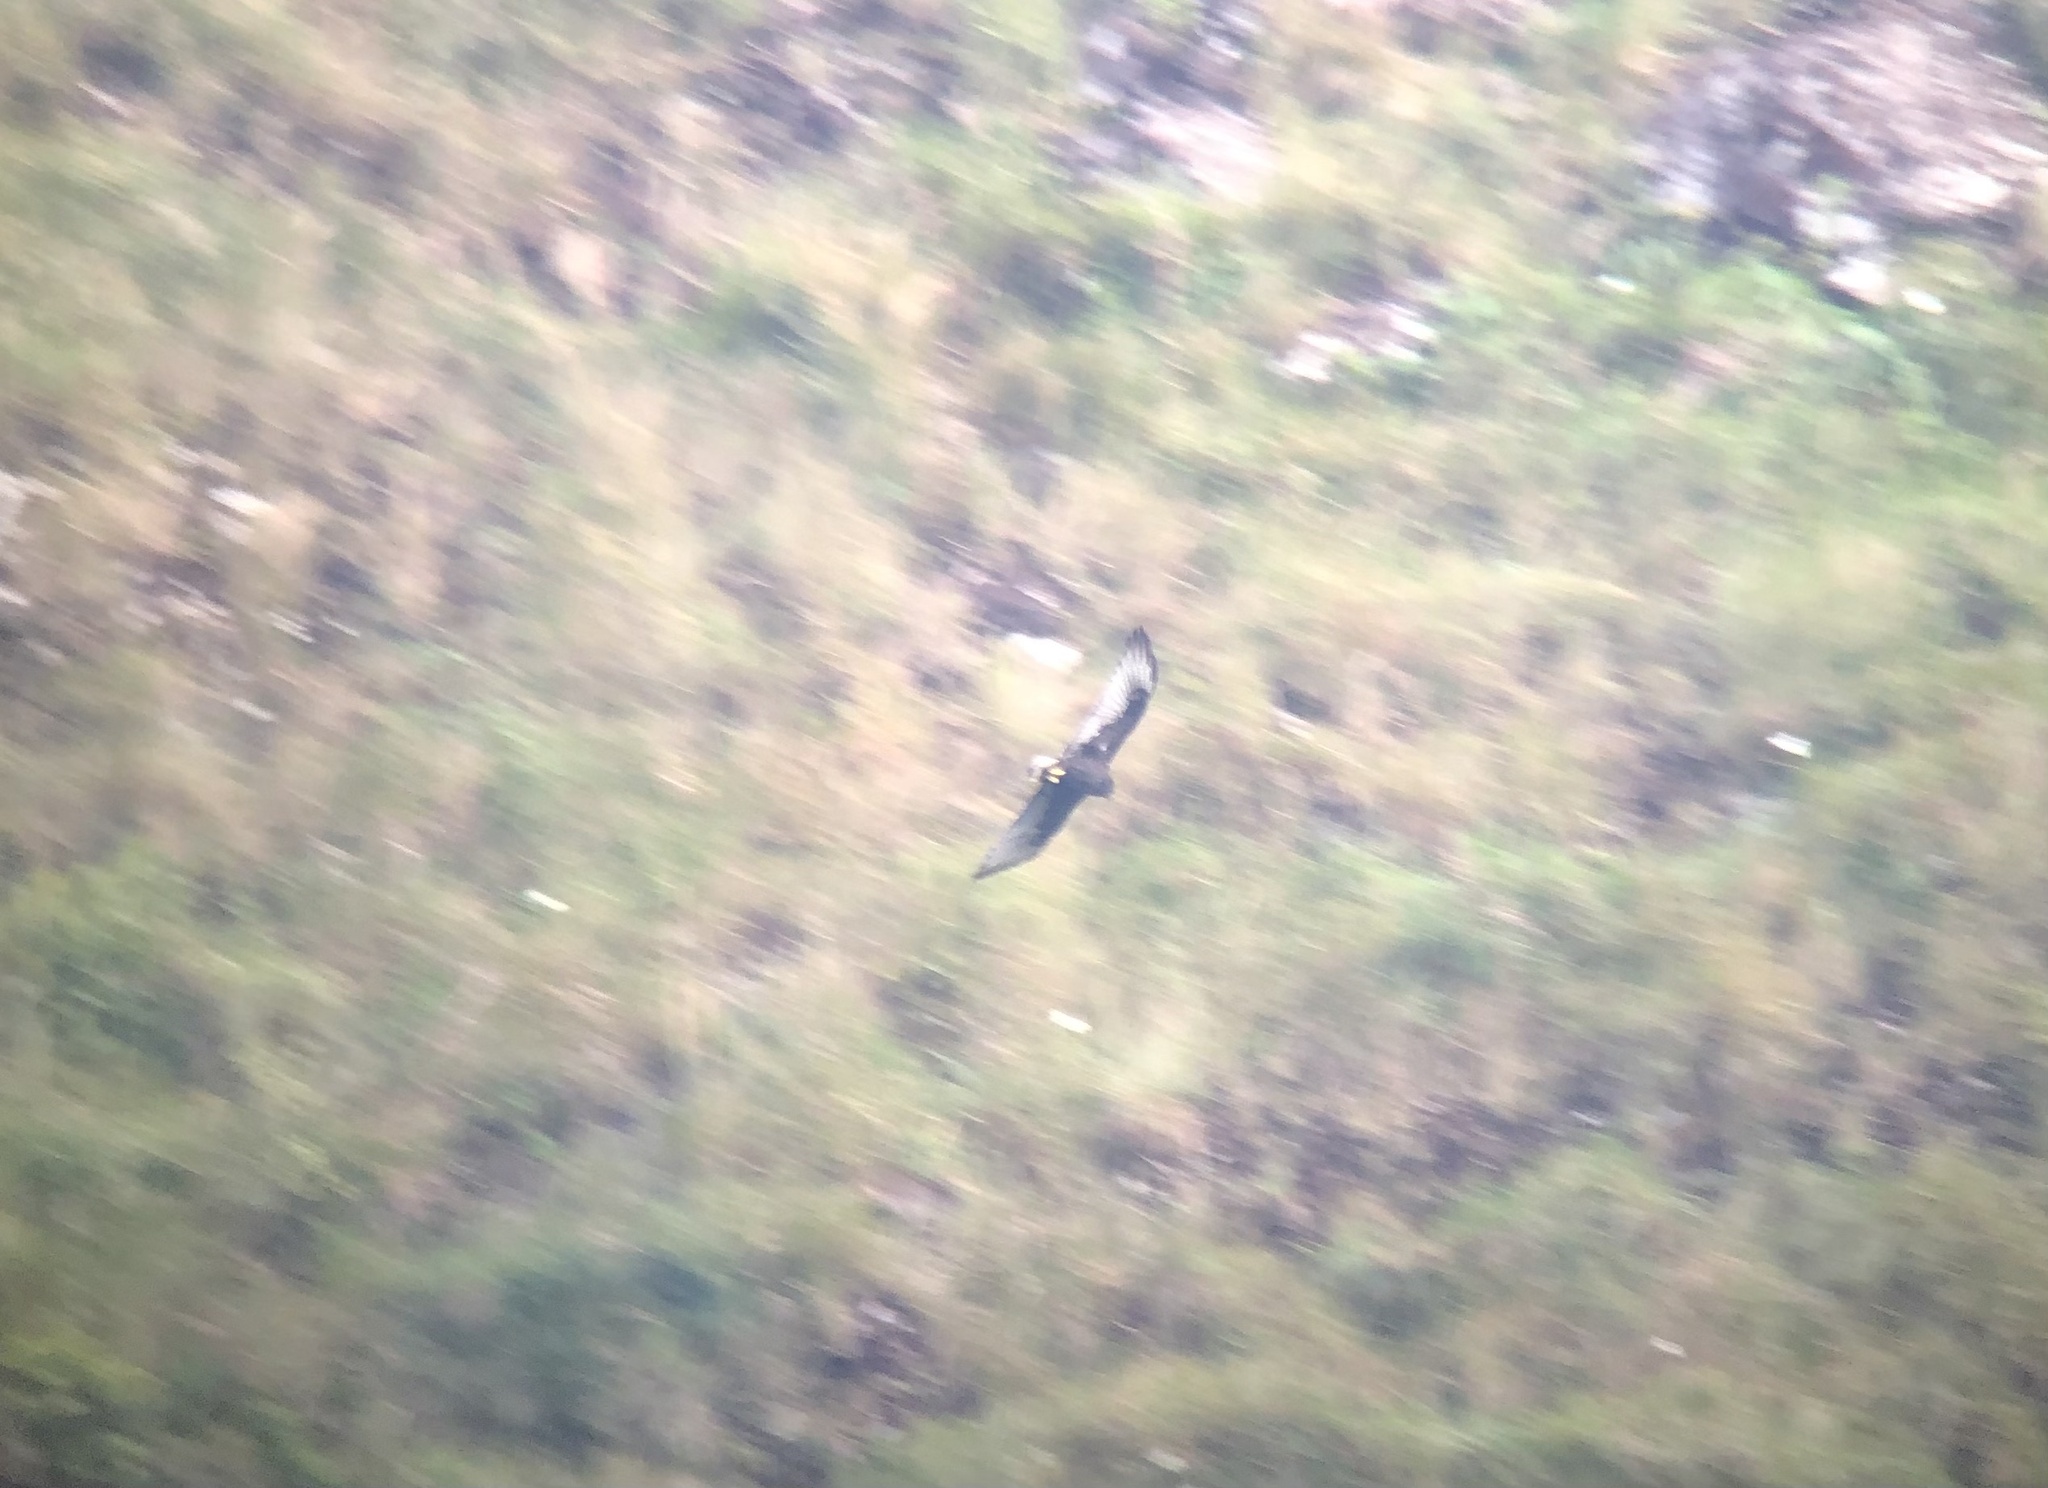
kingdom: Animalia
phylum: Chordata
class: Aves
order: Accipitriformes
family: Accipitridae
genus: Buteo
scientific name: Buteo albonotatus
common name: Zone-tailed hawk
